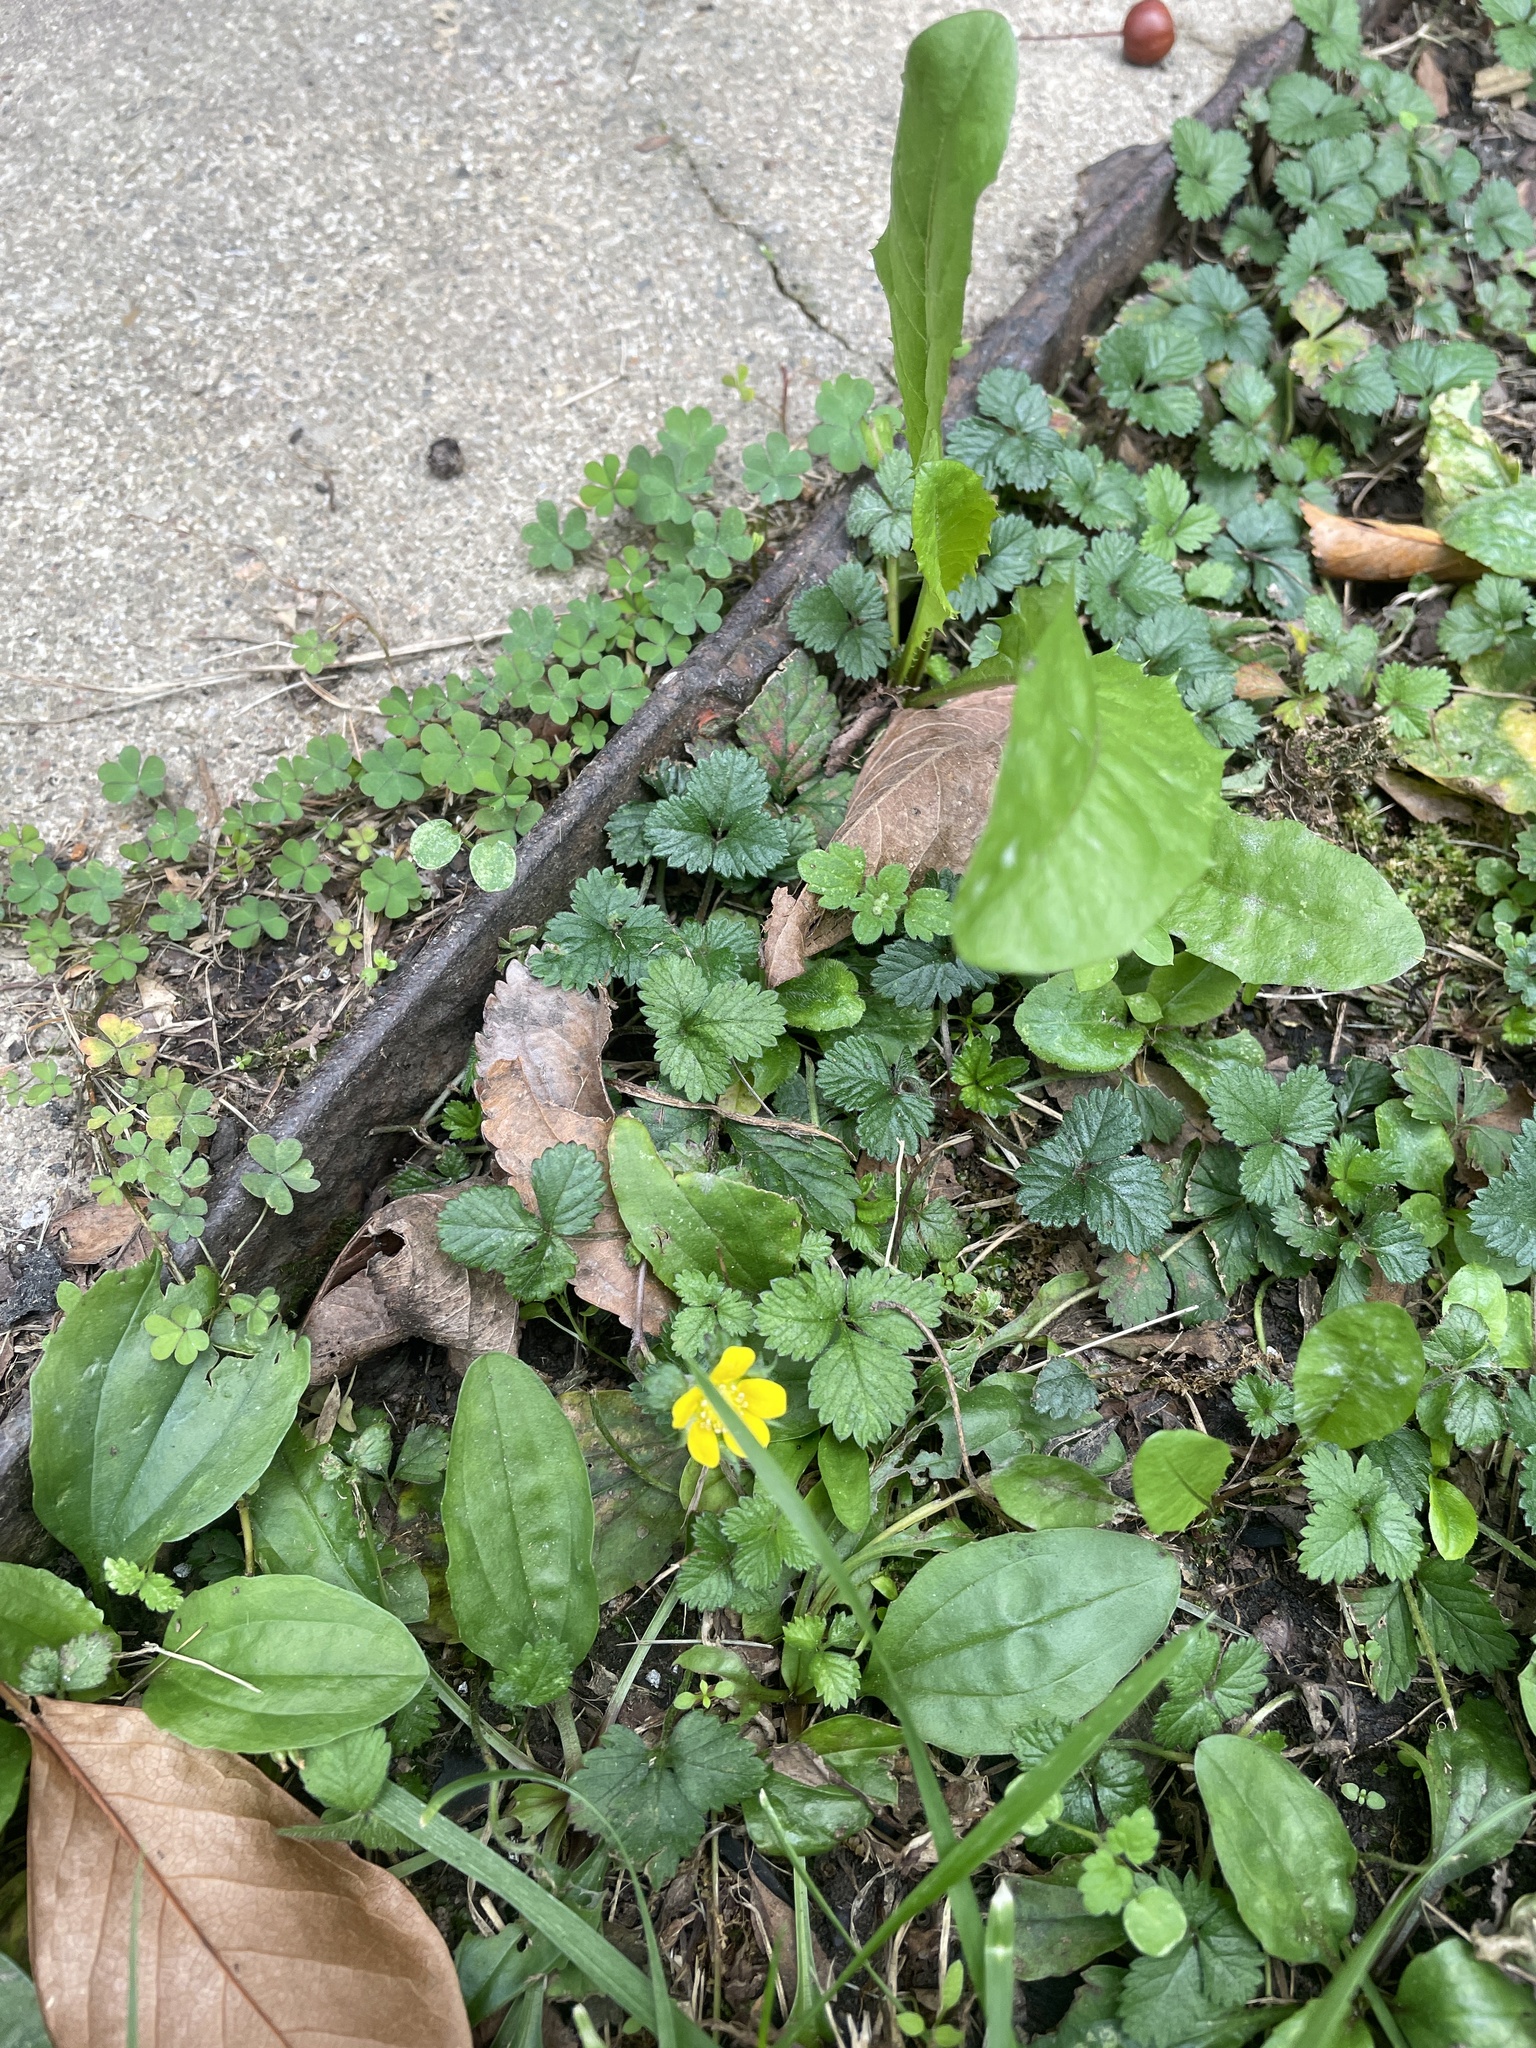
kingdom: Plantae
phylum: Tracheophyta
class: Magnoliopsida
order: Rosales
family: Rosaceae
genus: Potentilla
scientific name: Potentilla indica
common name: Yellow-flowered strawberry
